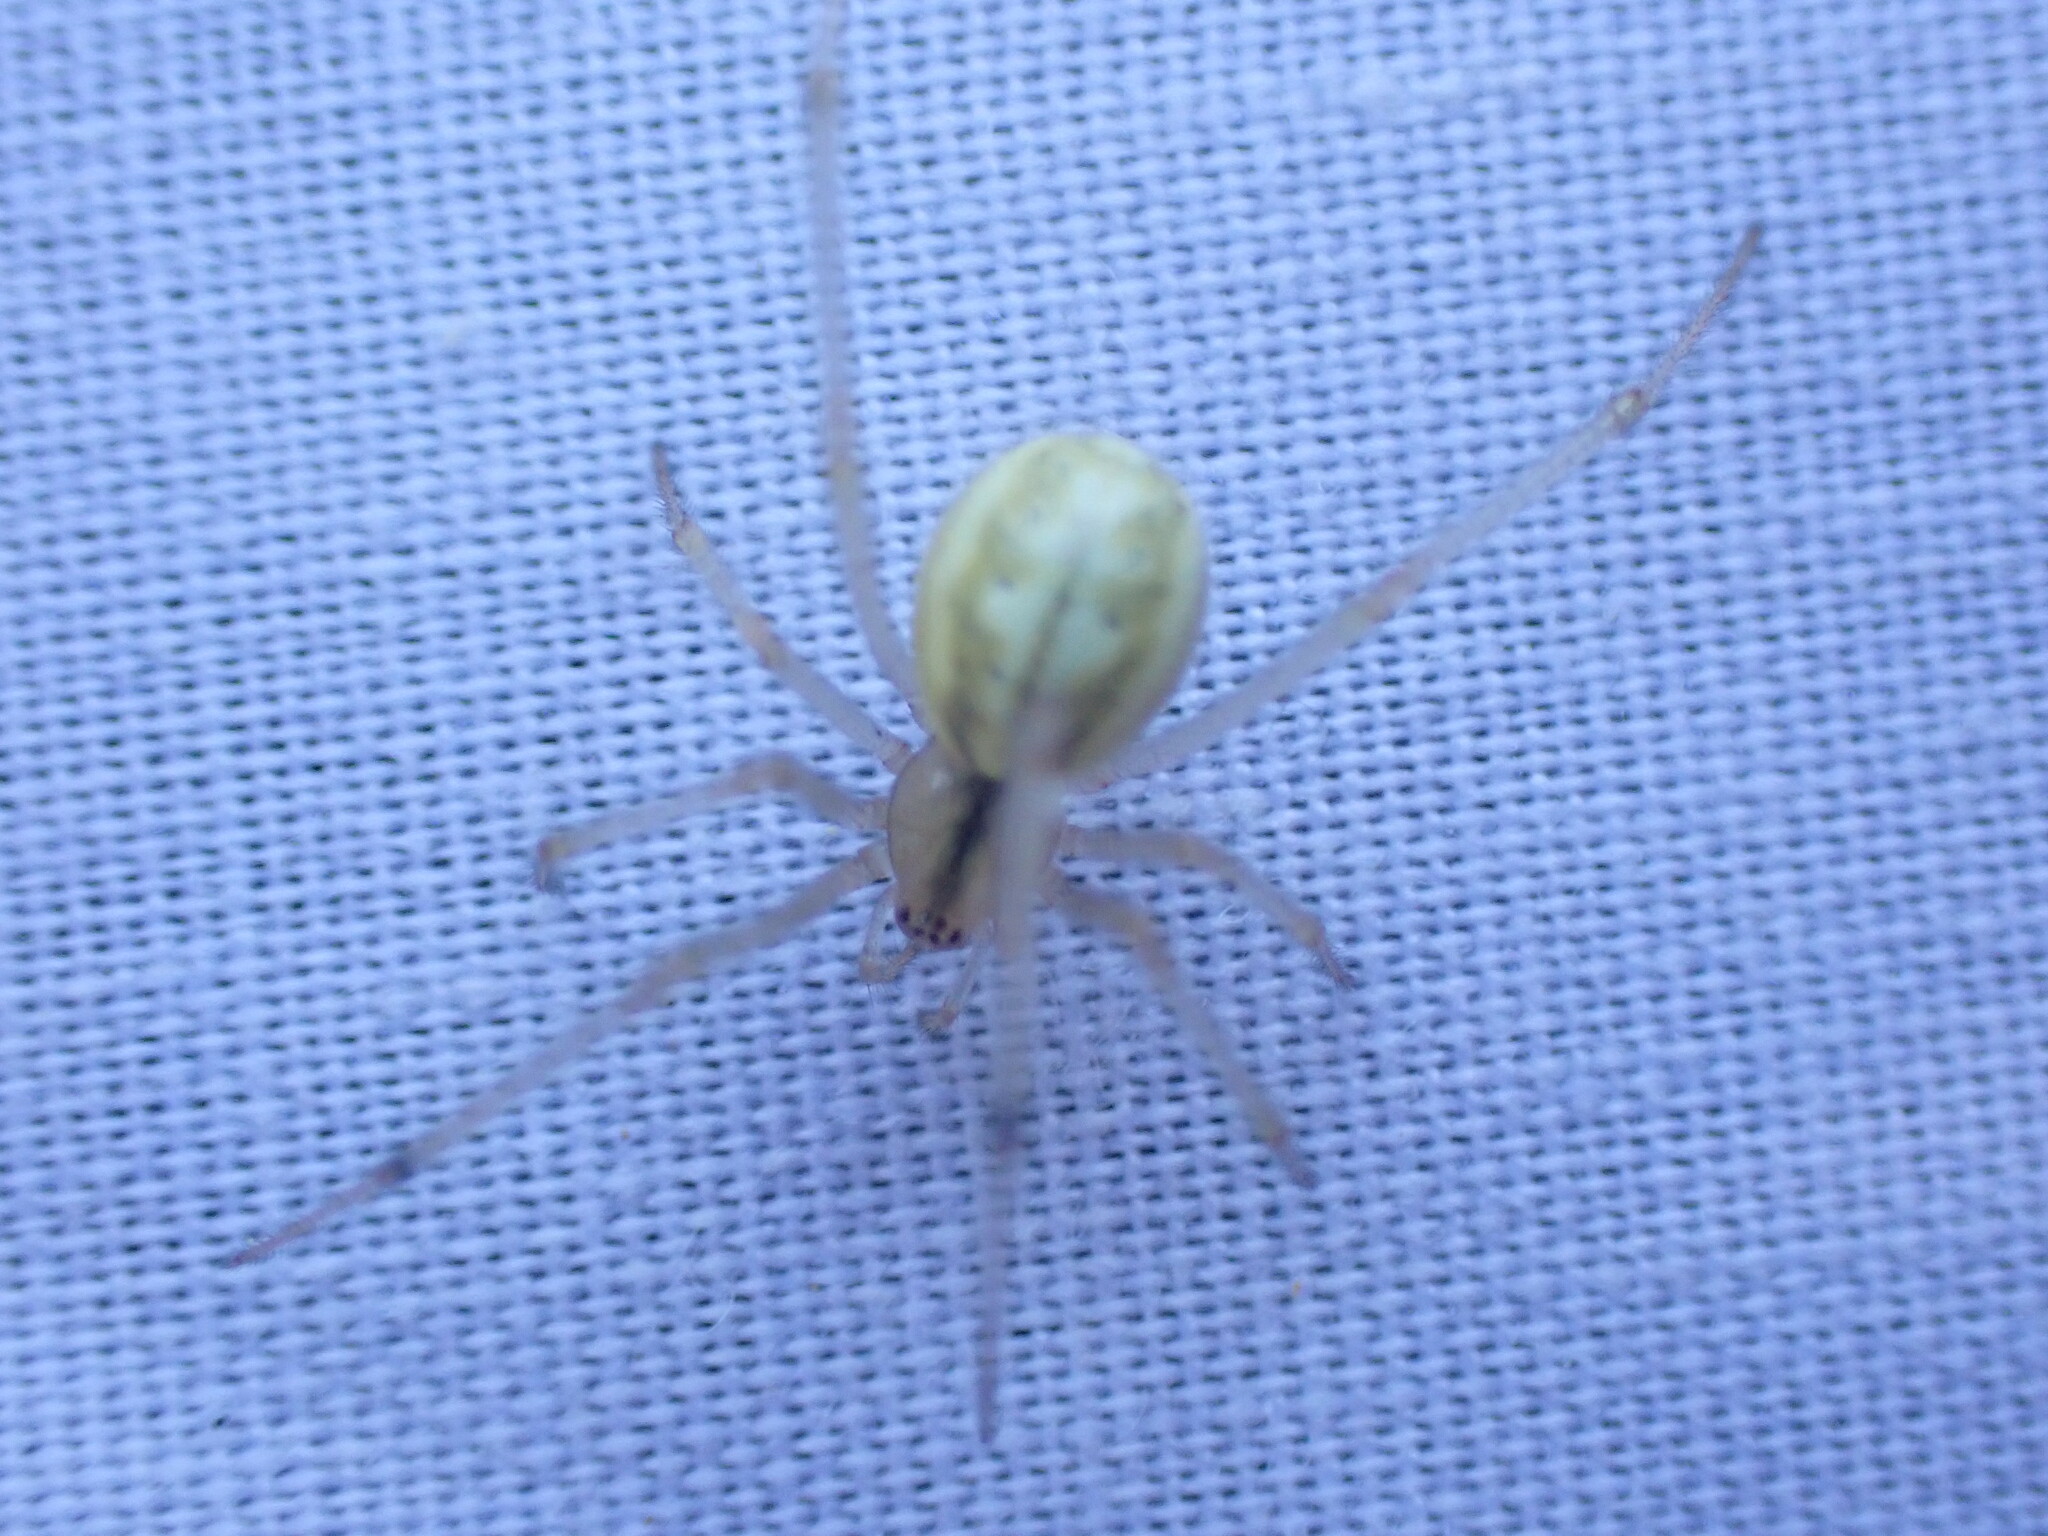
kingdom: Animalia
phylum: Arthropoda
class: Arachnida
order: Araneae
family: Theridiidae
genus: Enoplognatha
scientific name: Enoplognatha ovata
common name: Common candy-striped spider
